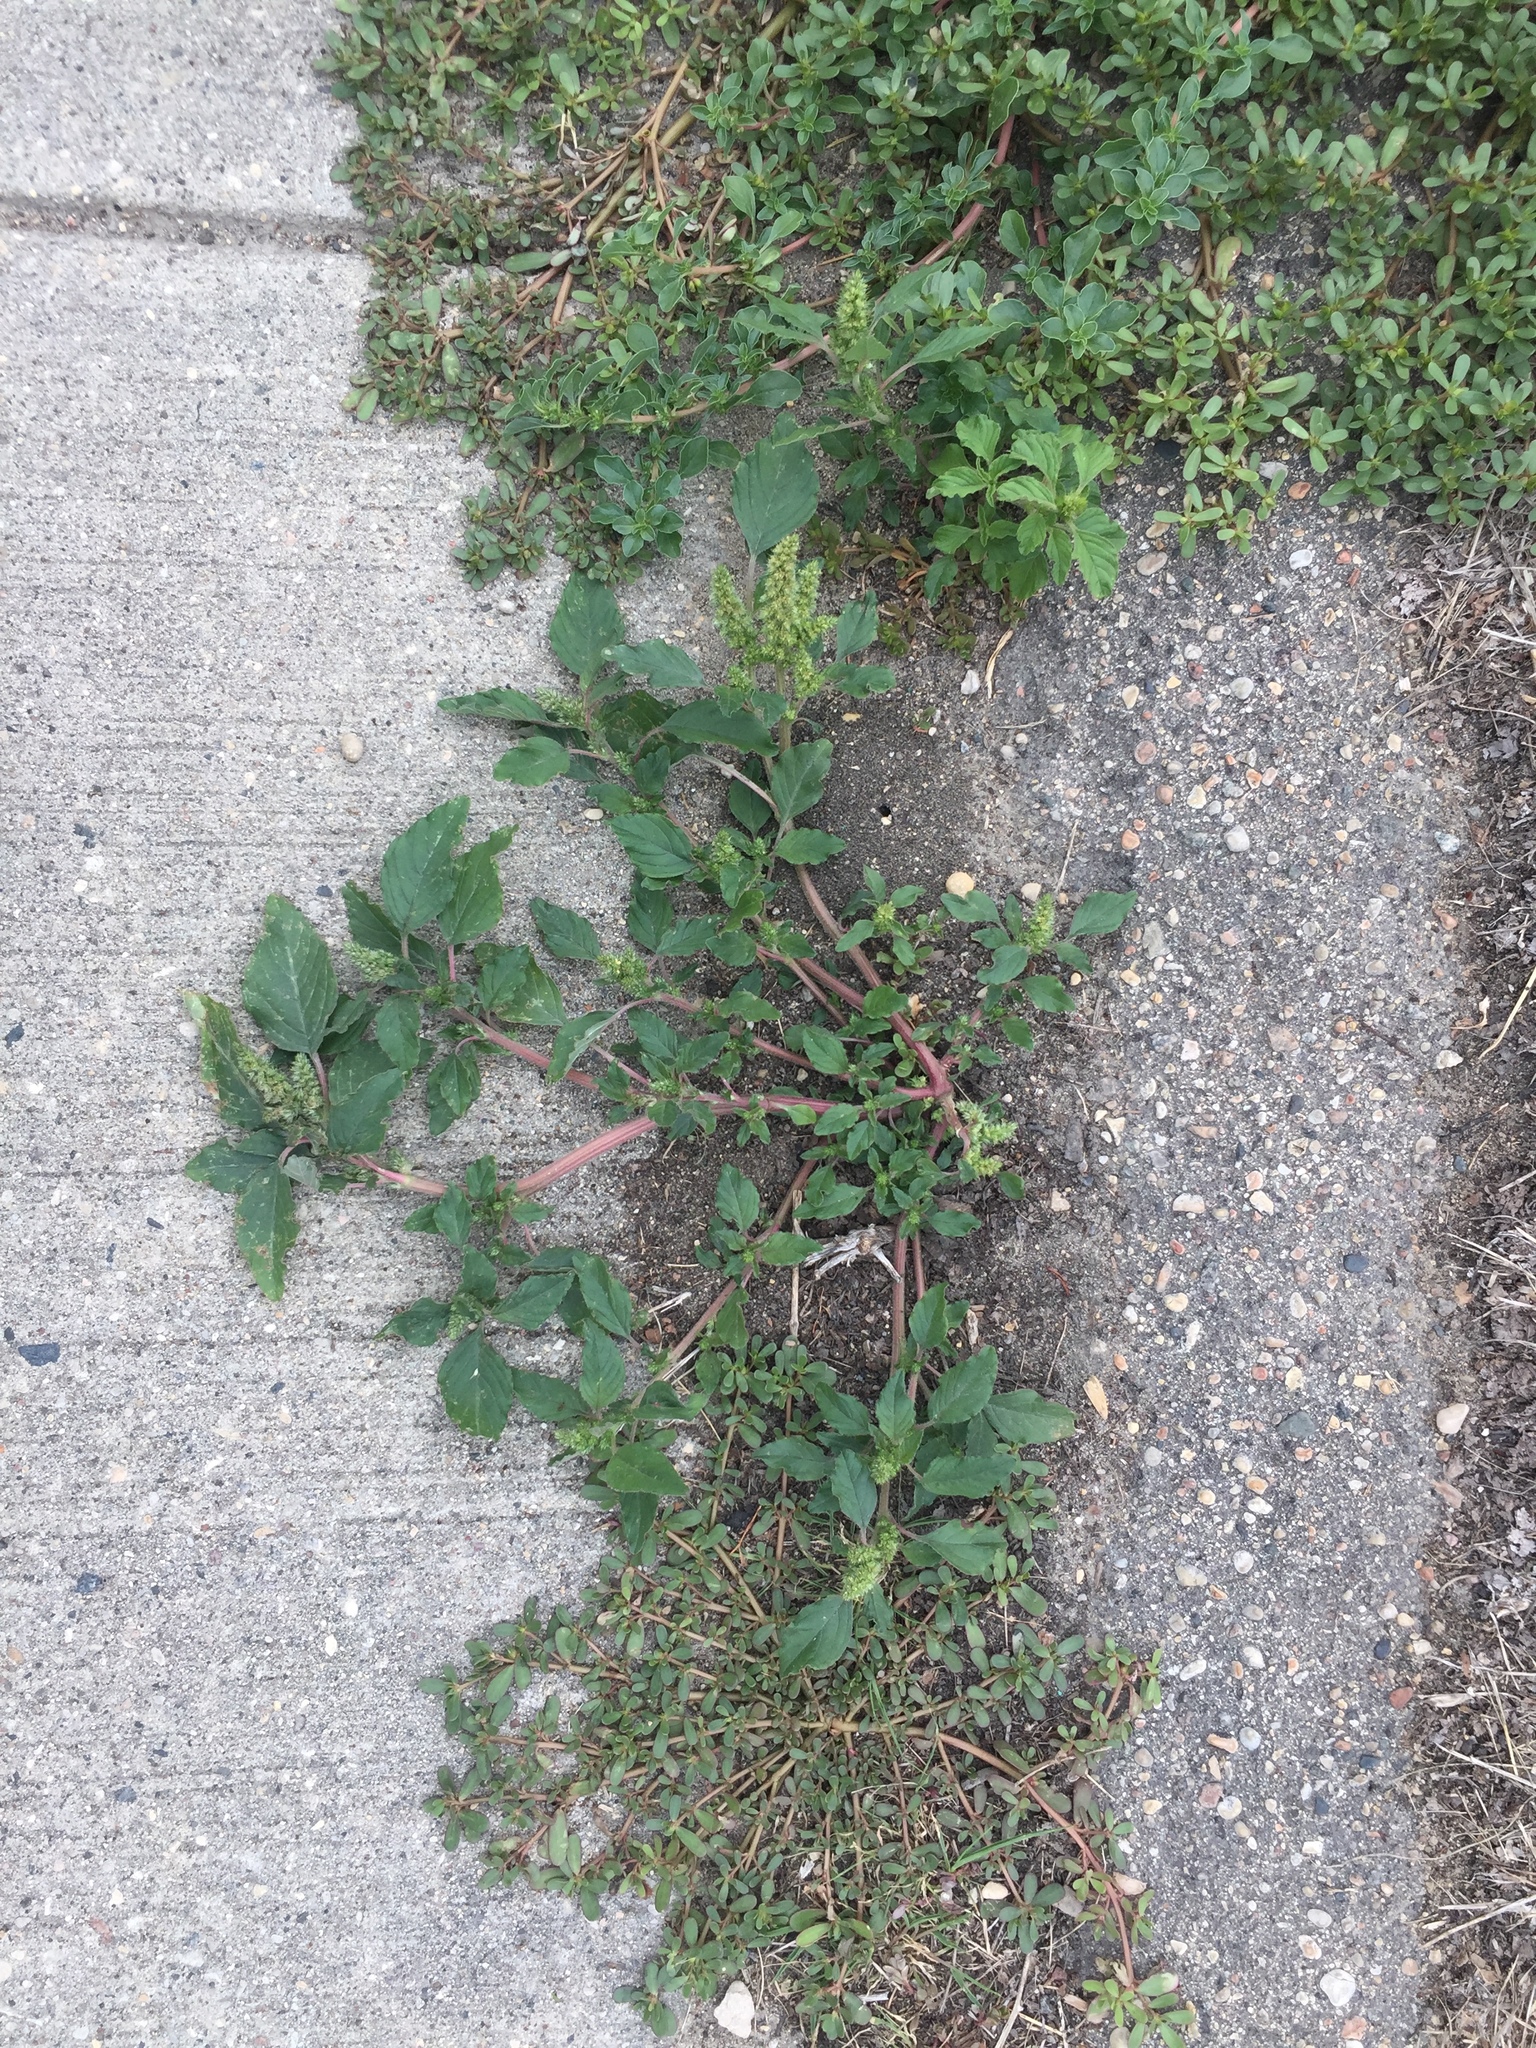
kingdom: Plantae
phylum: Tracheophyta
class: Magnoliopsida
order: Caryophyllales
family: Amaranthaceae
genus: Amaranthus
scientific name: Amaranthus retroflexus
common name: Redroot amaranth
